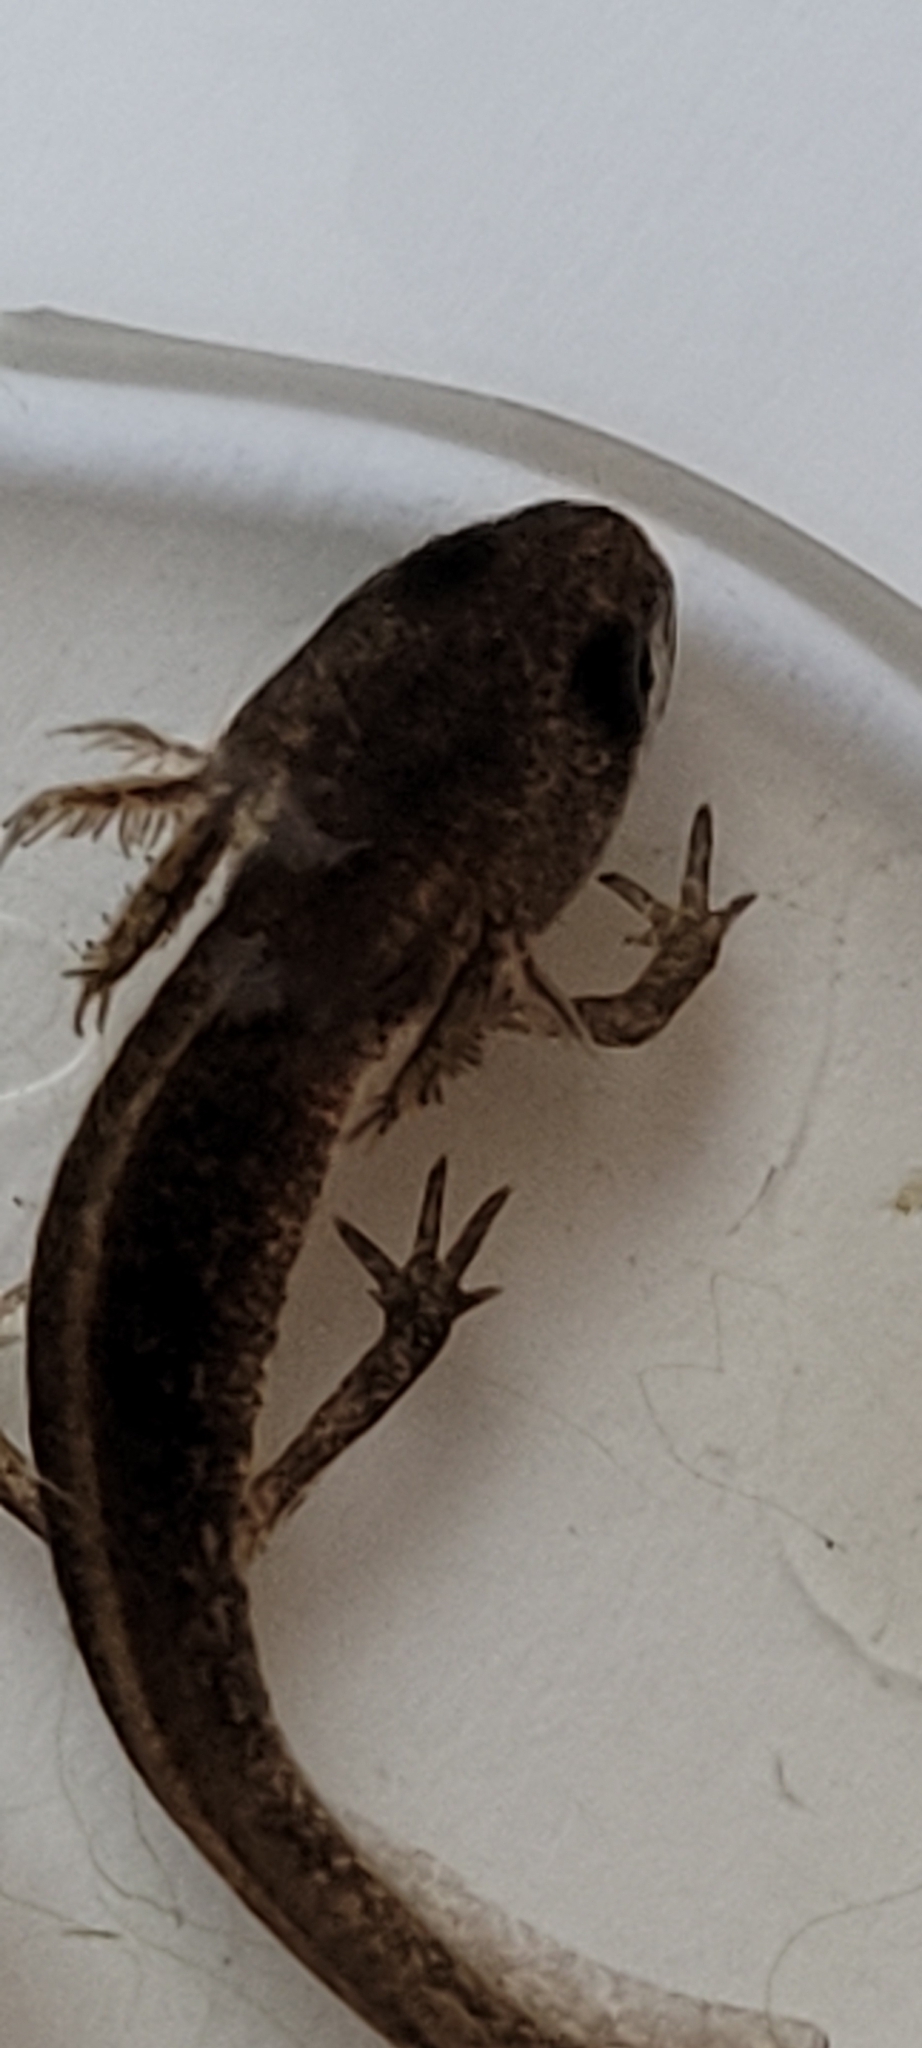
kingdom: Animalia
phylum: Chordata
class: Amphibia
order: Caudata
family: Salamandridae
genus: Lissotriton
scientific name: Lissotriton helveticus
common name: Palmate newt
